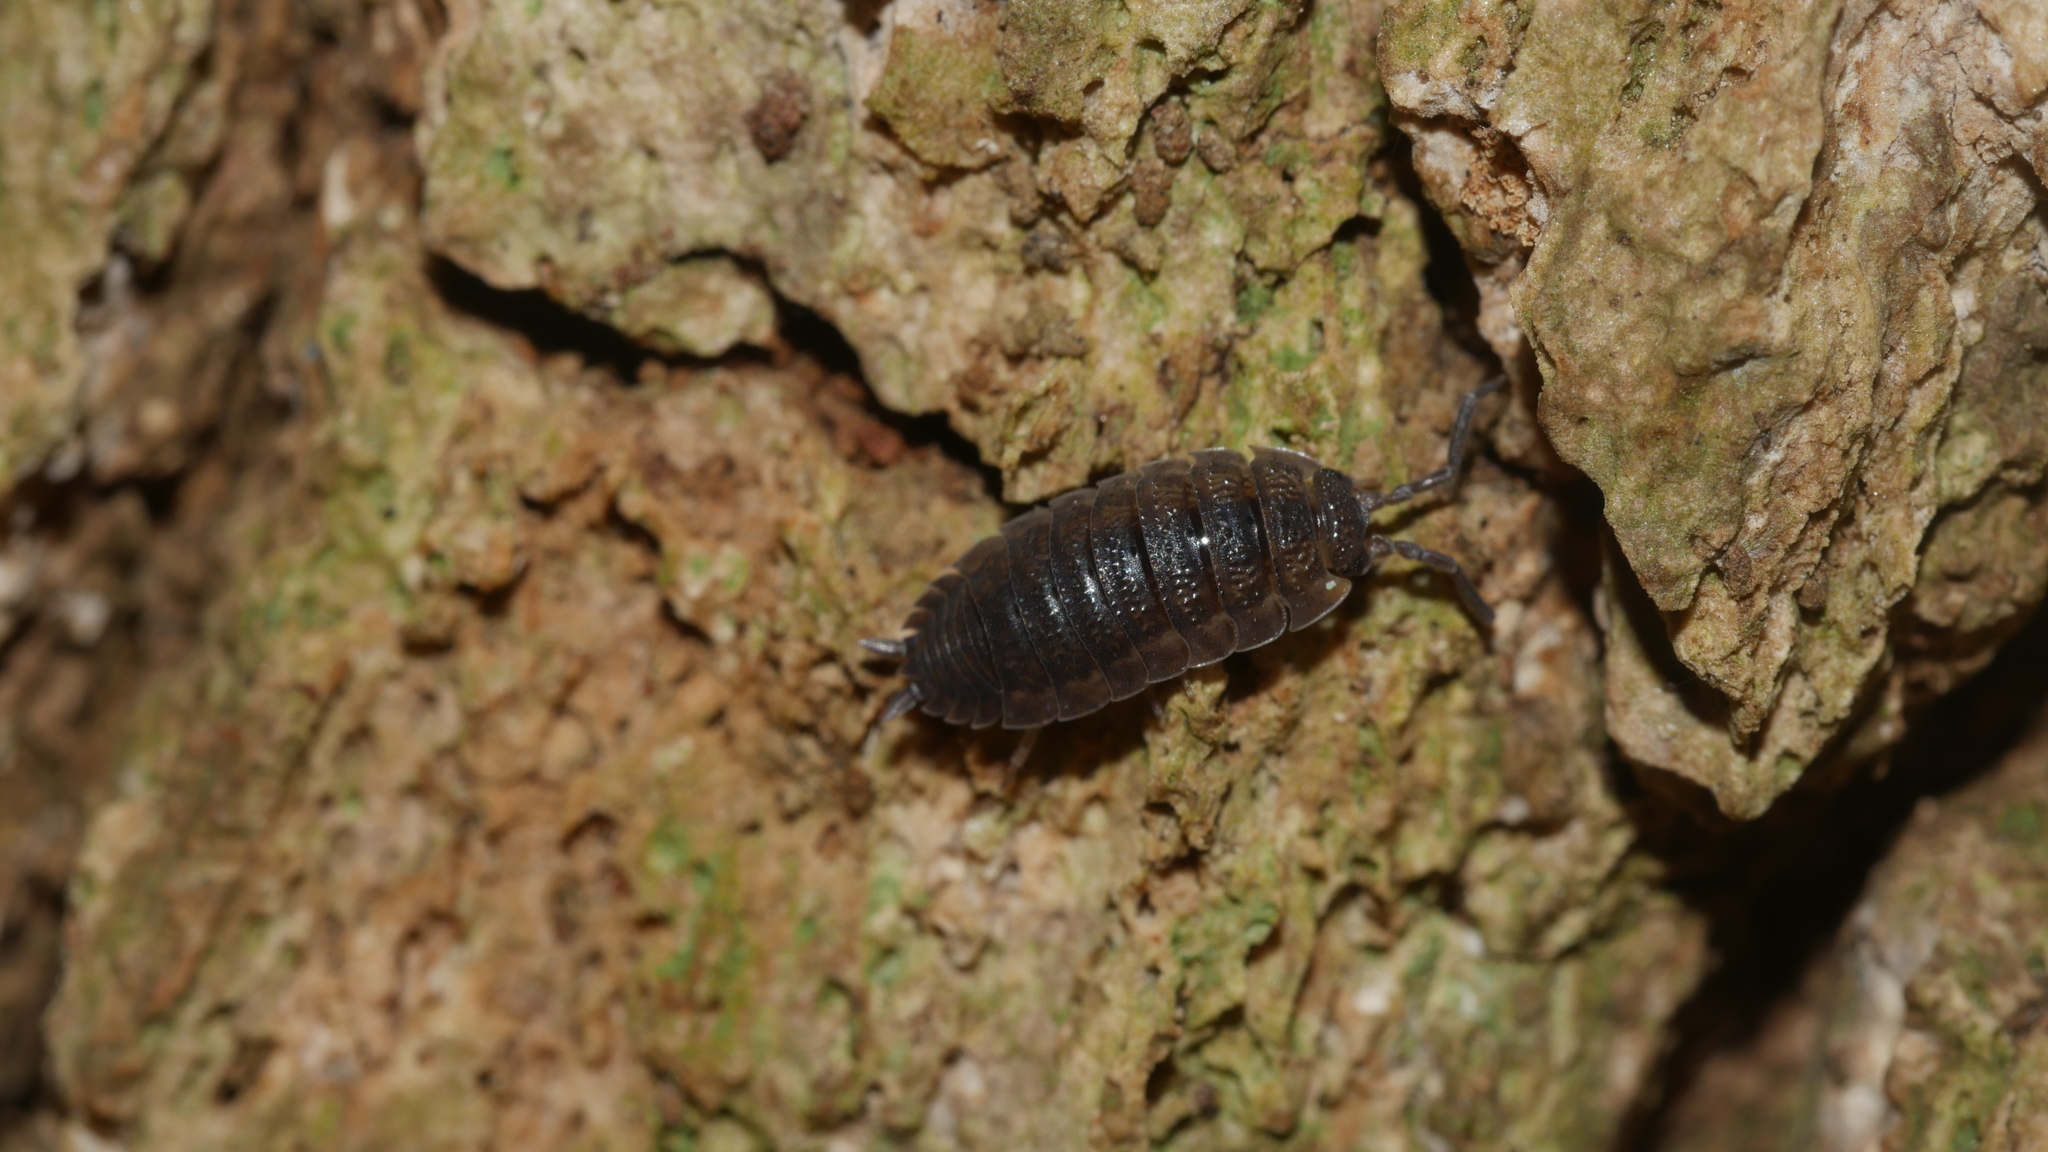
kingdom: Animalia
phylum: Arthropoda
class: Malacostraca
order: Isopoda
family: Porcellionidae
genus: Porcellio
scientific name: Porcellio scaber
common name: Common rough woodlouse
